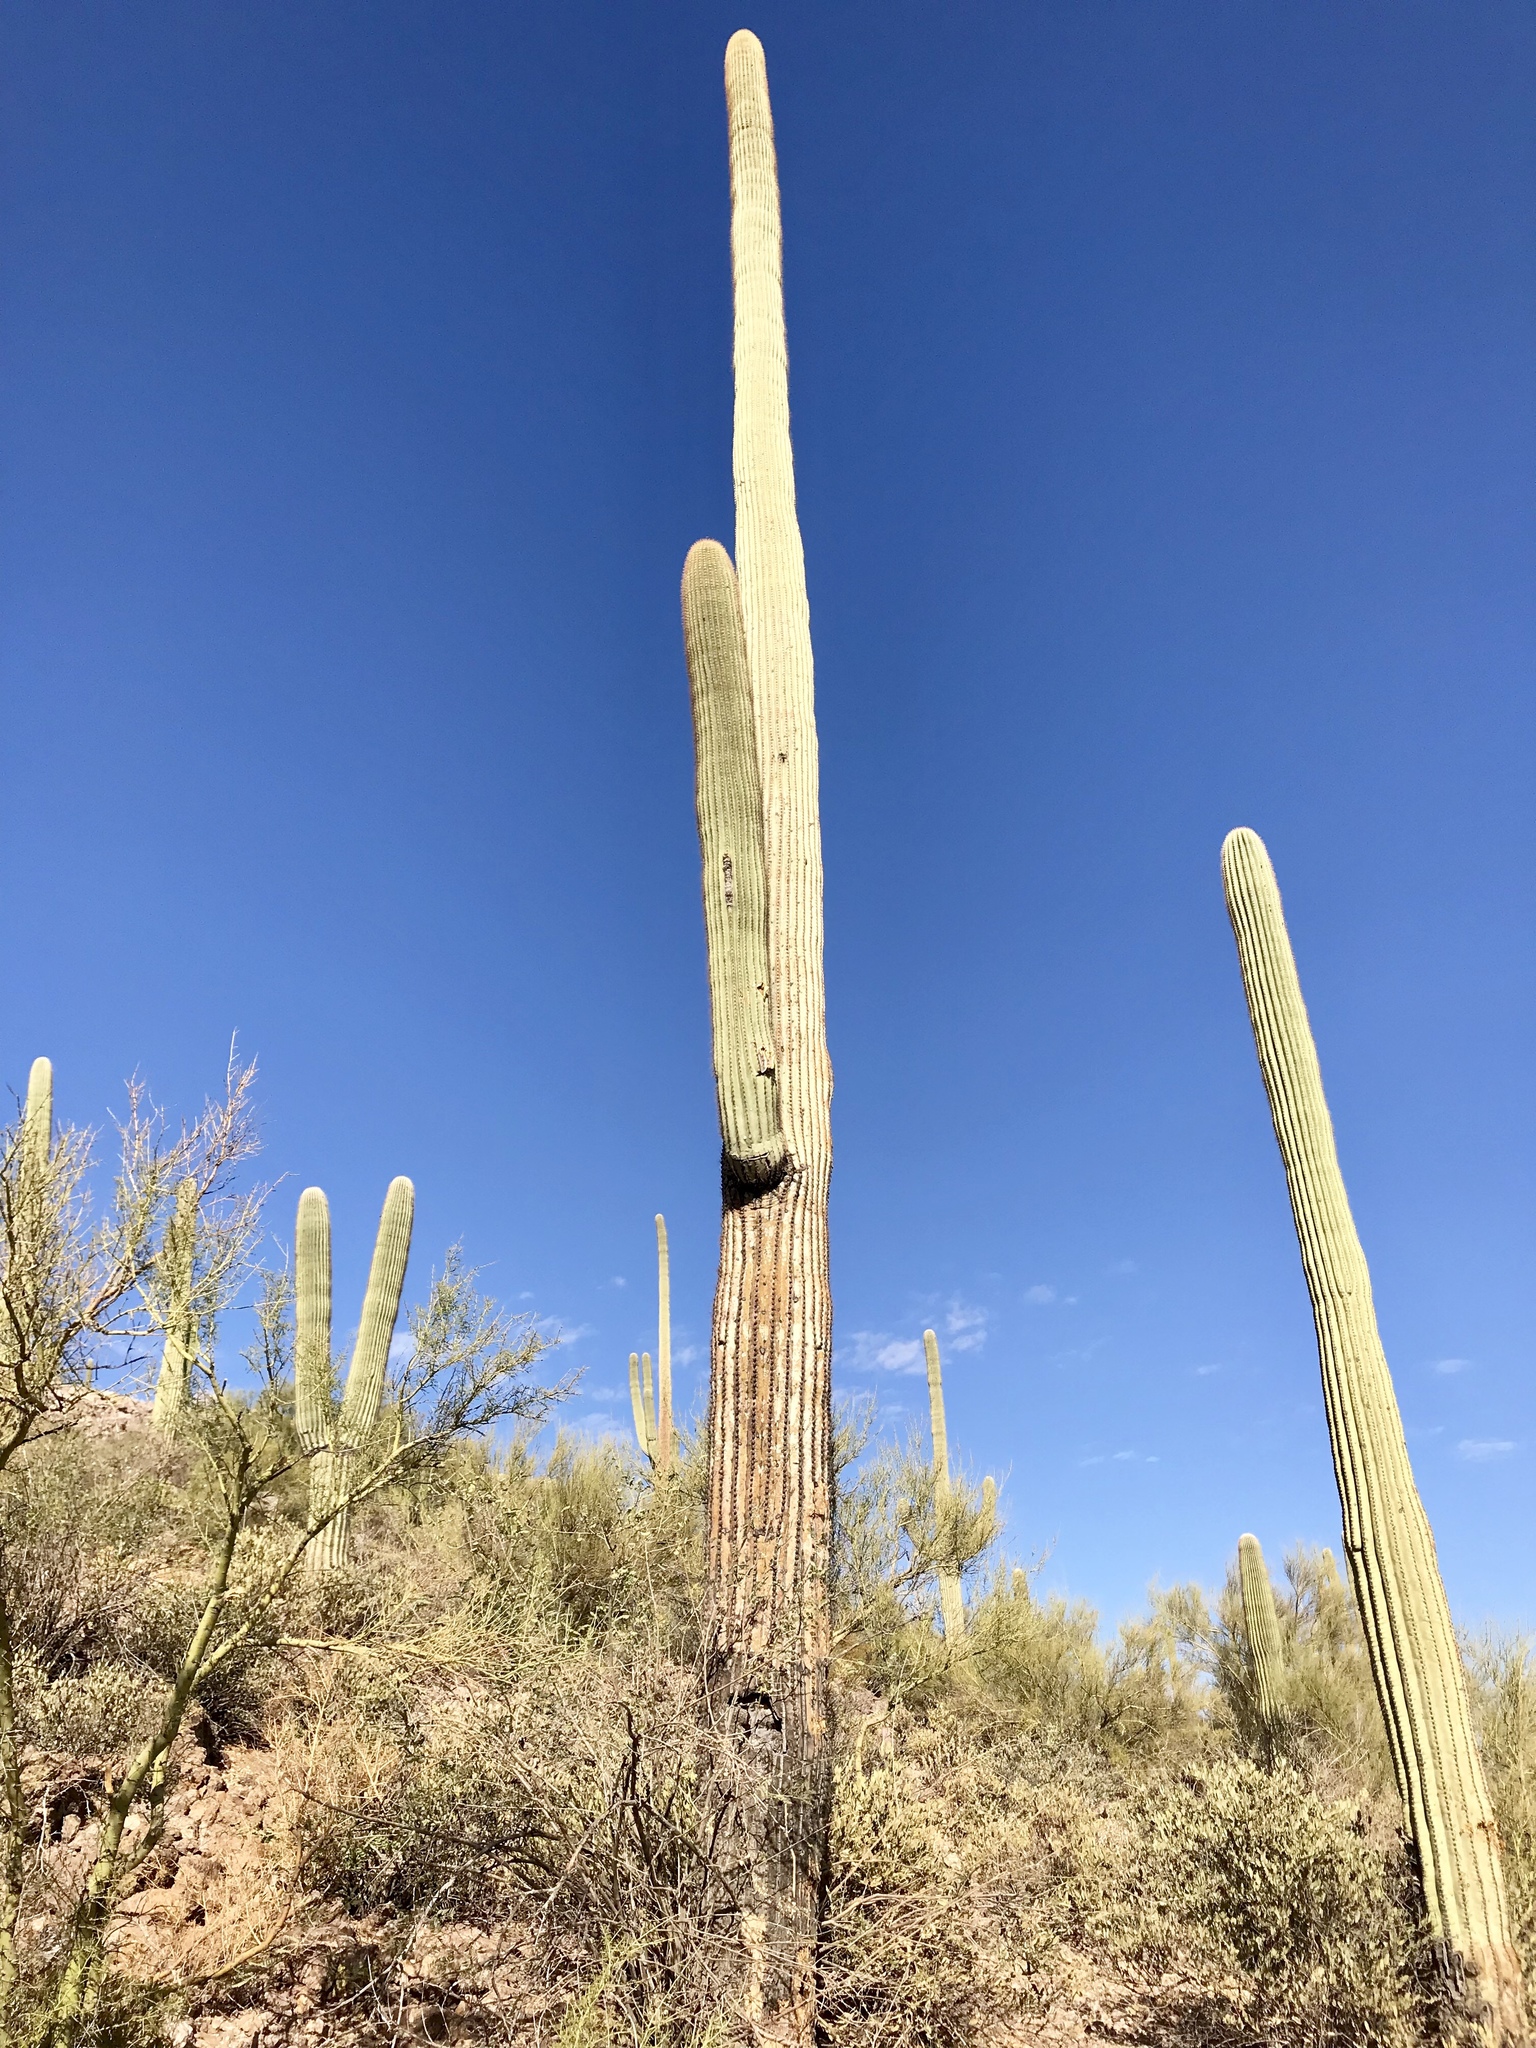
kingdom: Plantae
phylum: Tracheophyta
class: Magnoliopsida
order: Caryophyllales
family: Cactaceae
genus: Carnegiea
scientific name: Carnegiea gigantea
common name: Saguaro
